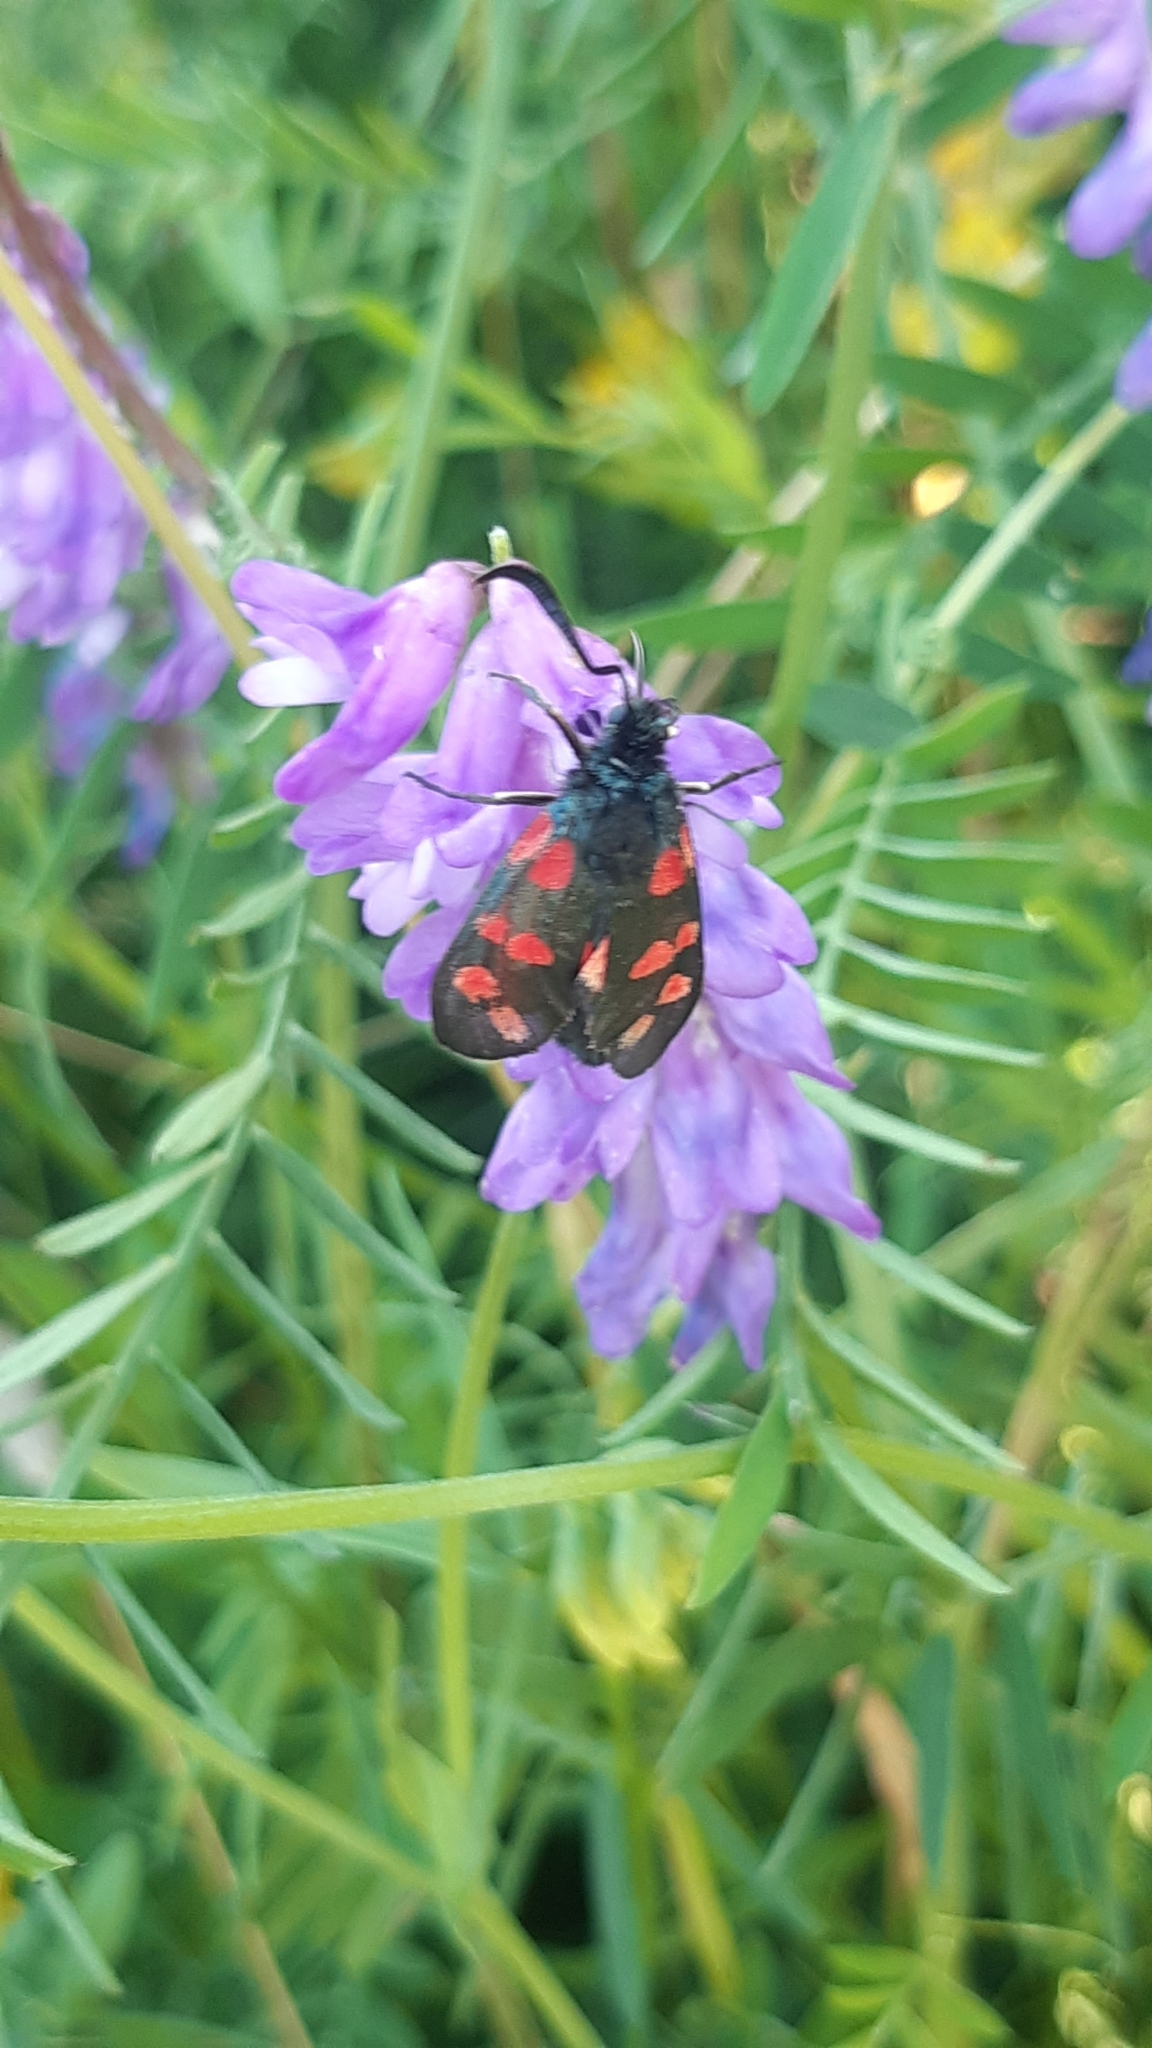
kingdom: Animalia
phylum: Arthropoda
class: Insecta
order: Lepidoptera
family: Zygaenidae
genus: Zygaena
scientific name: Zygaena filipendulae
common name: Six-spot burnet
